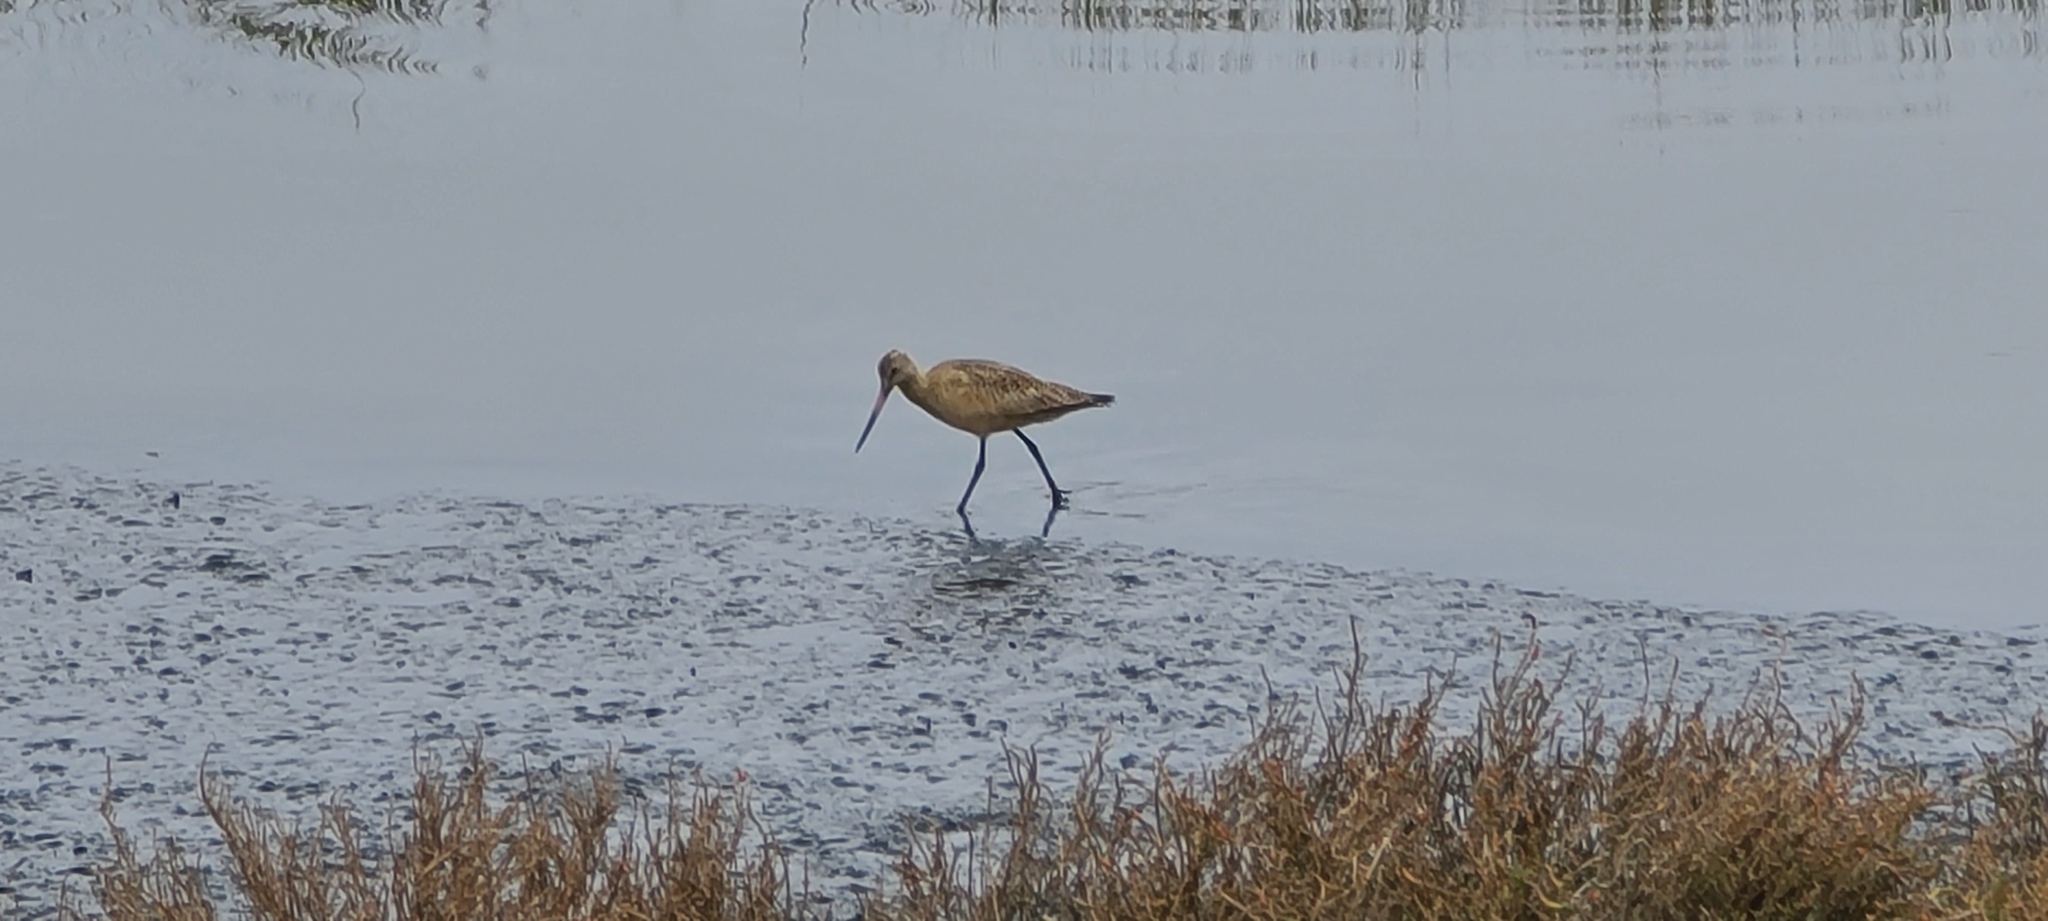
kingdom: Animalia
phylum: Chordata
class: Aves
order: Charadriiformes
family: Scolopacidae
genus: Limosa
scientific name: Limosa fedoa
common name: Marbled godwit
